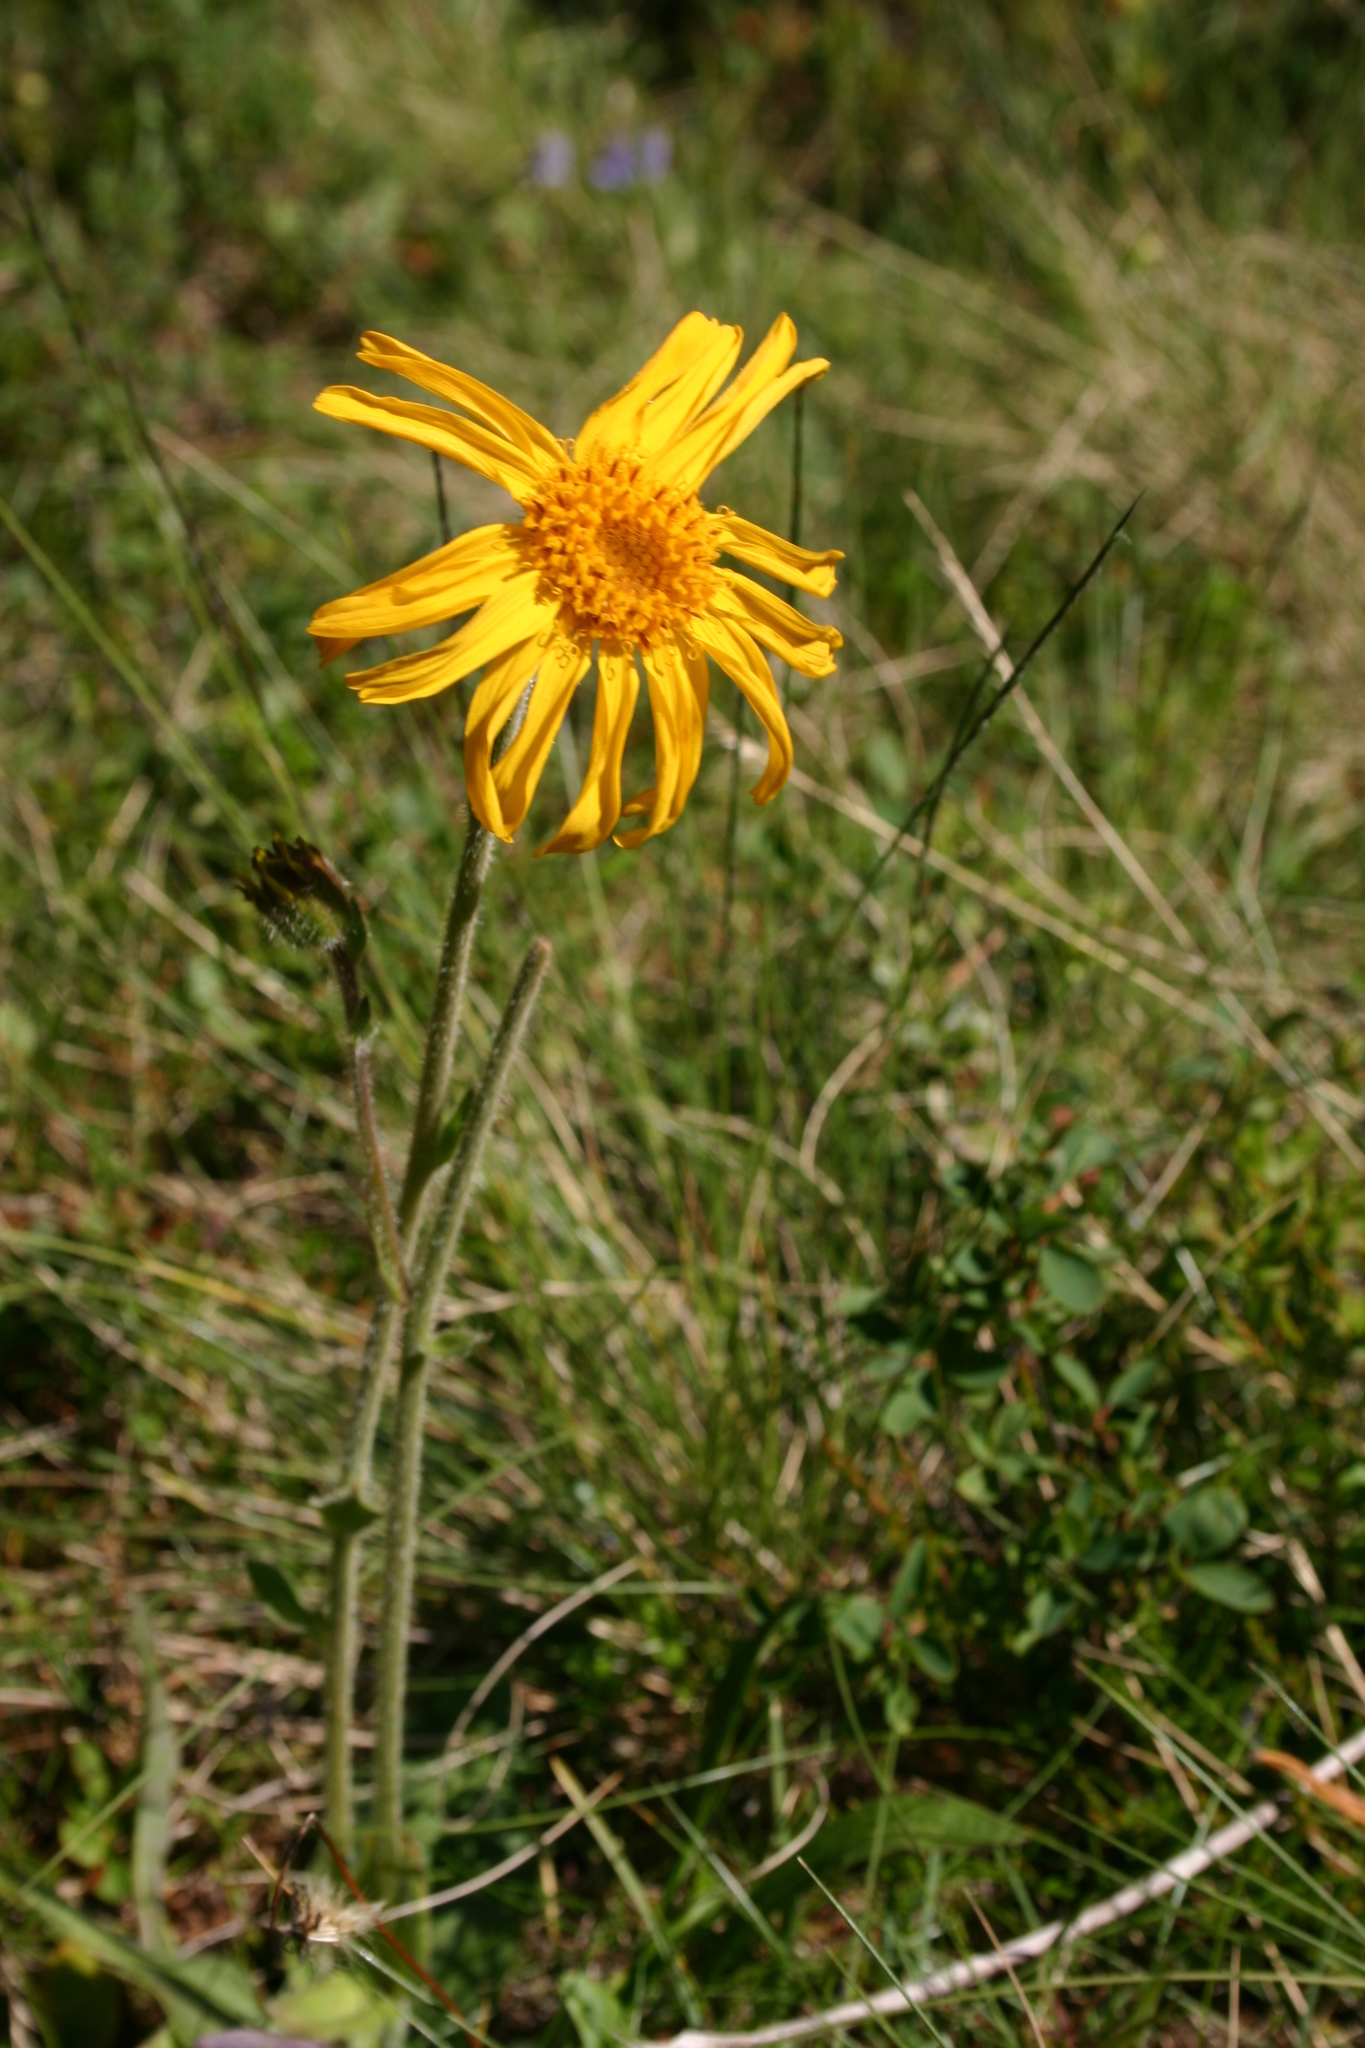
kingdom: Plantae
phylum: Tracheophyta
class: Magnoliopsida
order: Asterales
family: Asteraceae
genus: Arnica
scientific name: Arnica montana
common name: Leopard's bane
